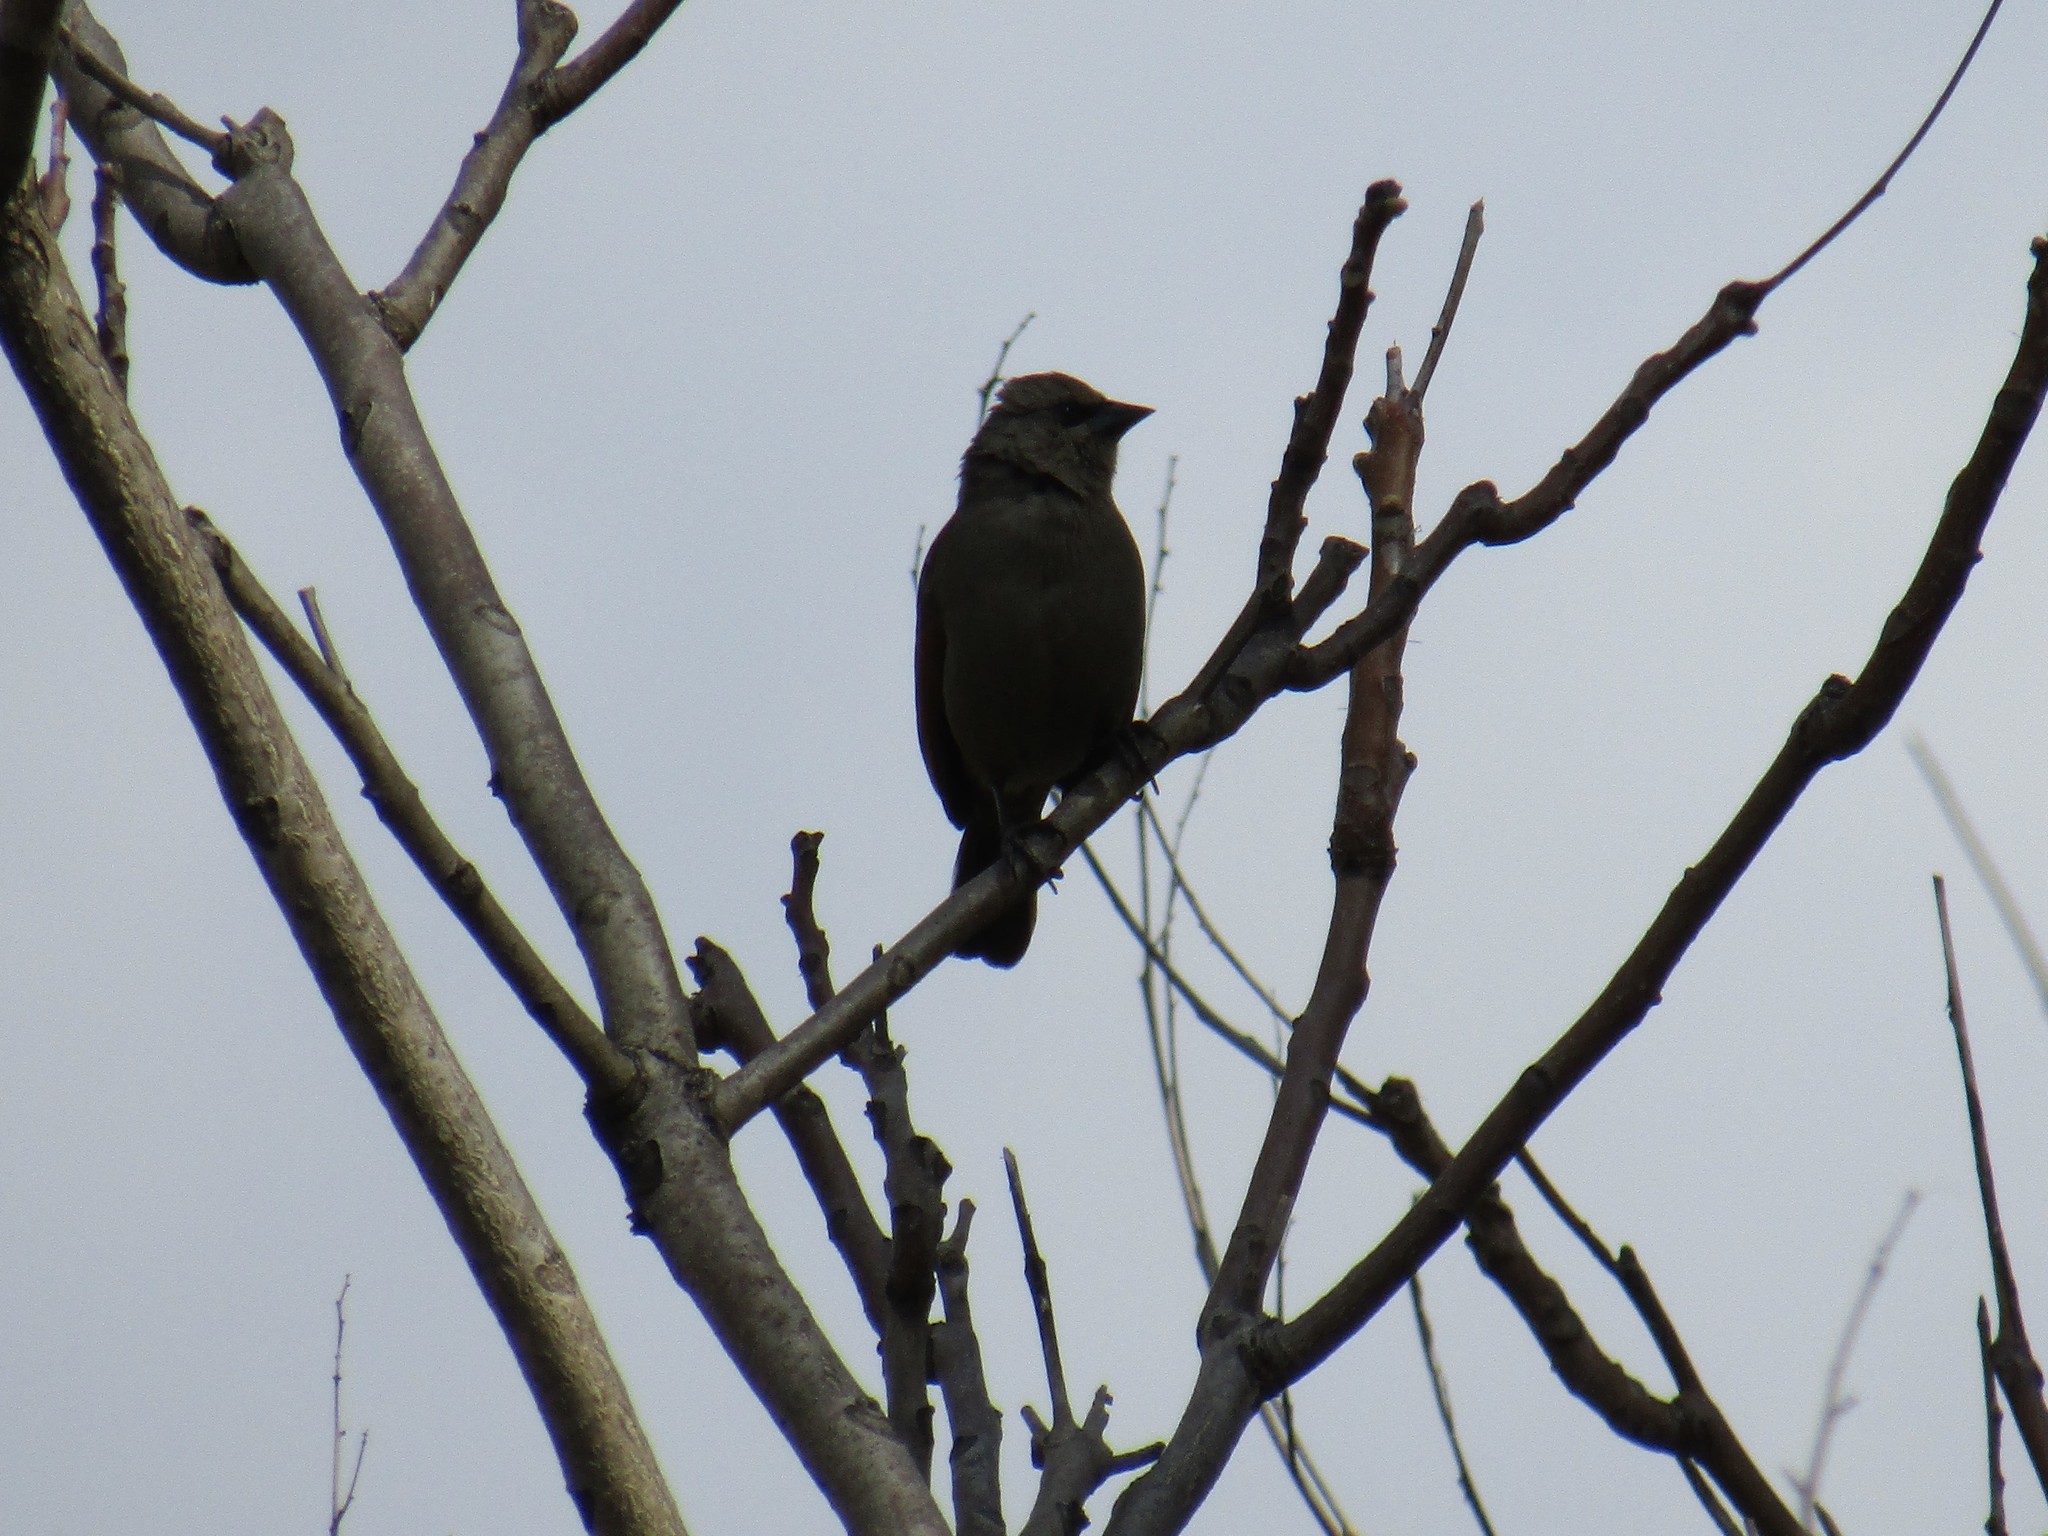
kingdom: Animalia
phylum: Chordata
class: Aves
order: Passeriformes
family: Icteridae
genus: Agelaioides
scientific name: Agelaioides badius
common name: Baywing
